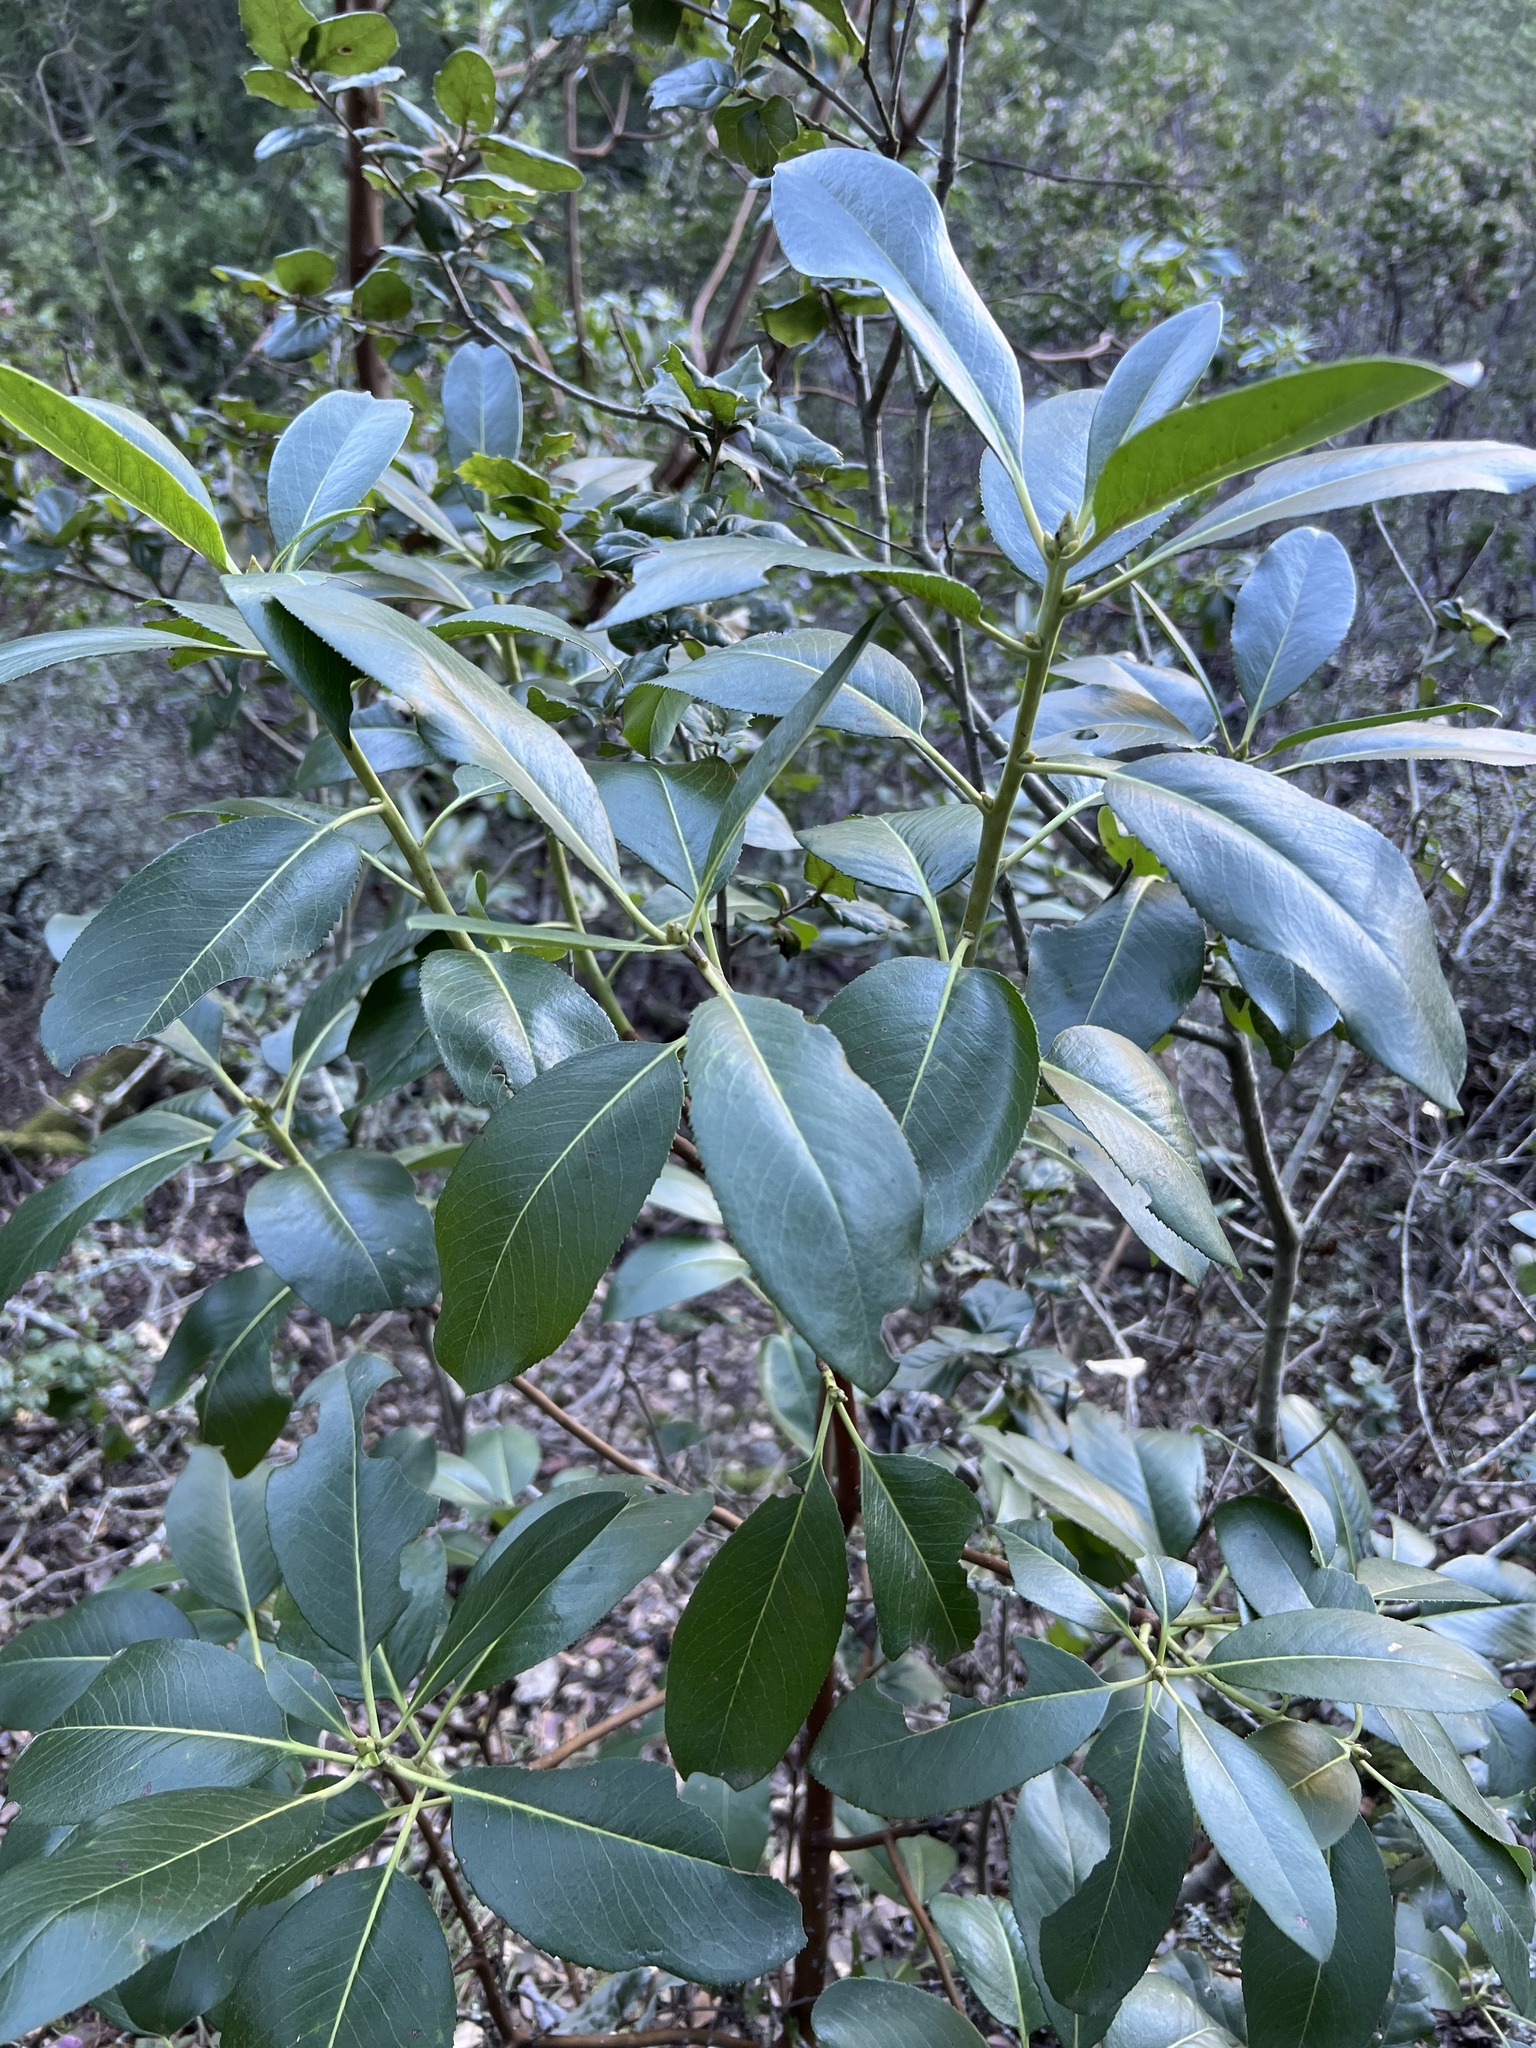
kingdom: Plantae
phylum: Tracheophyta
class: Magnoliopsida
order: Ericales
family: Ericaceae
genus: Arbutus
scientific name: Arbutus menziesii
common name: Pacific madrone
